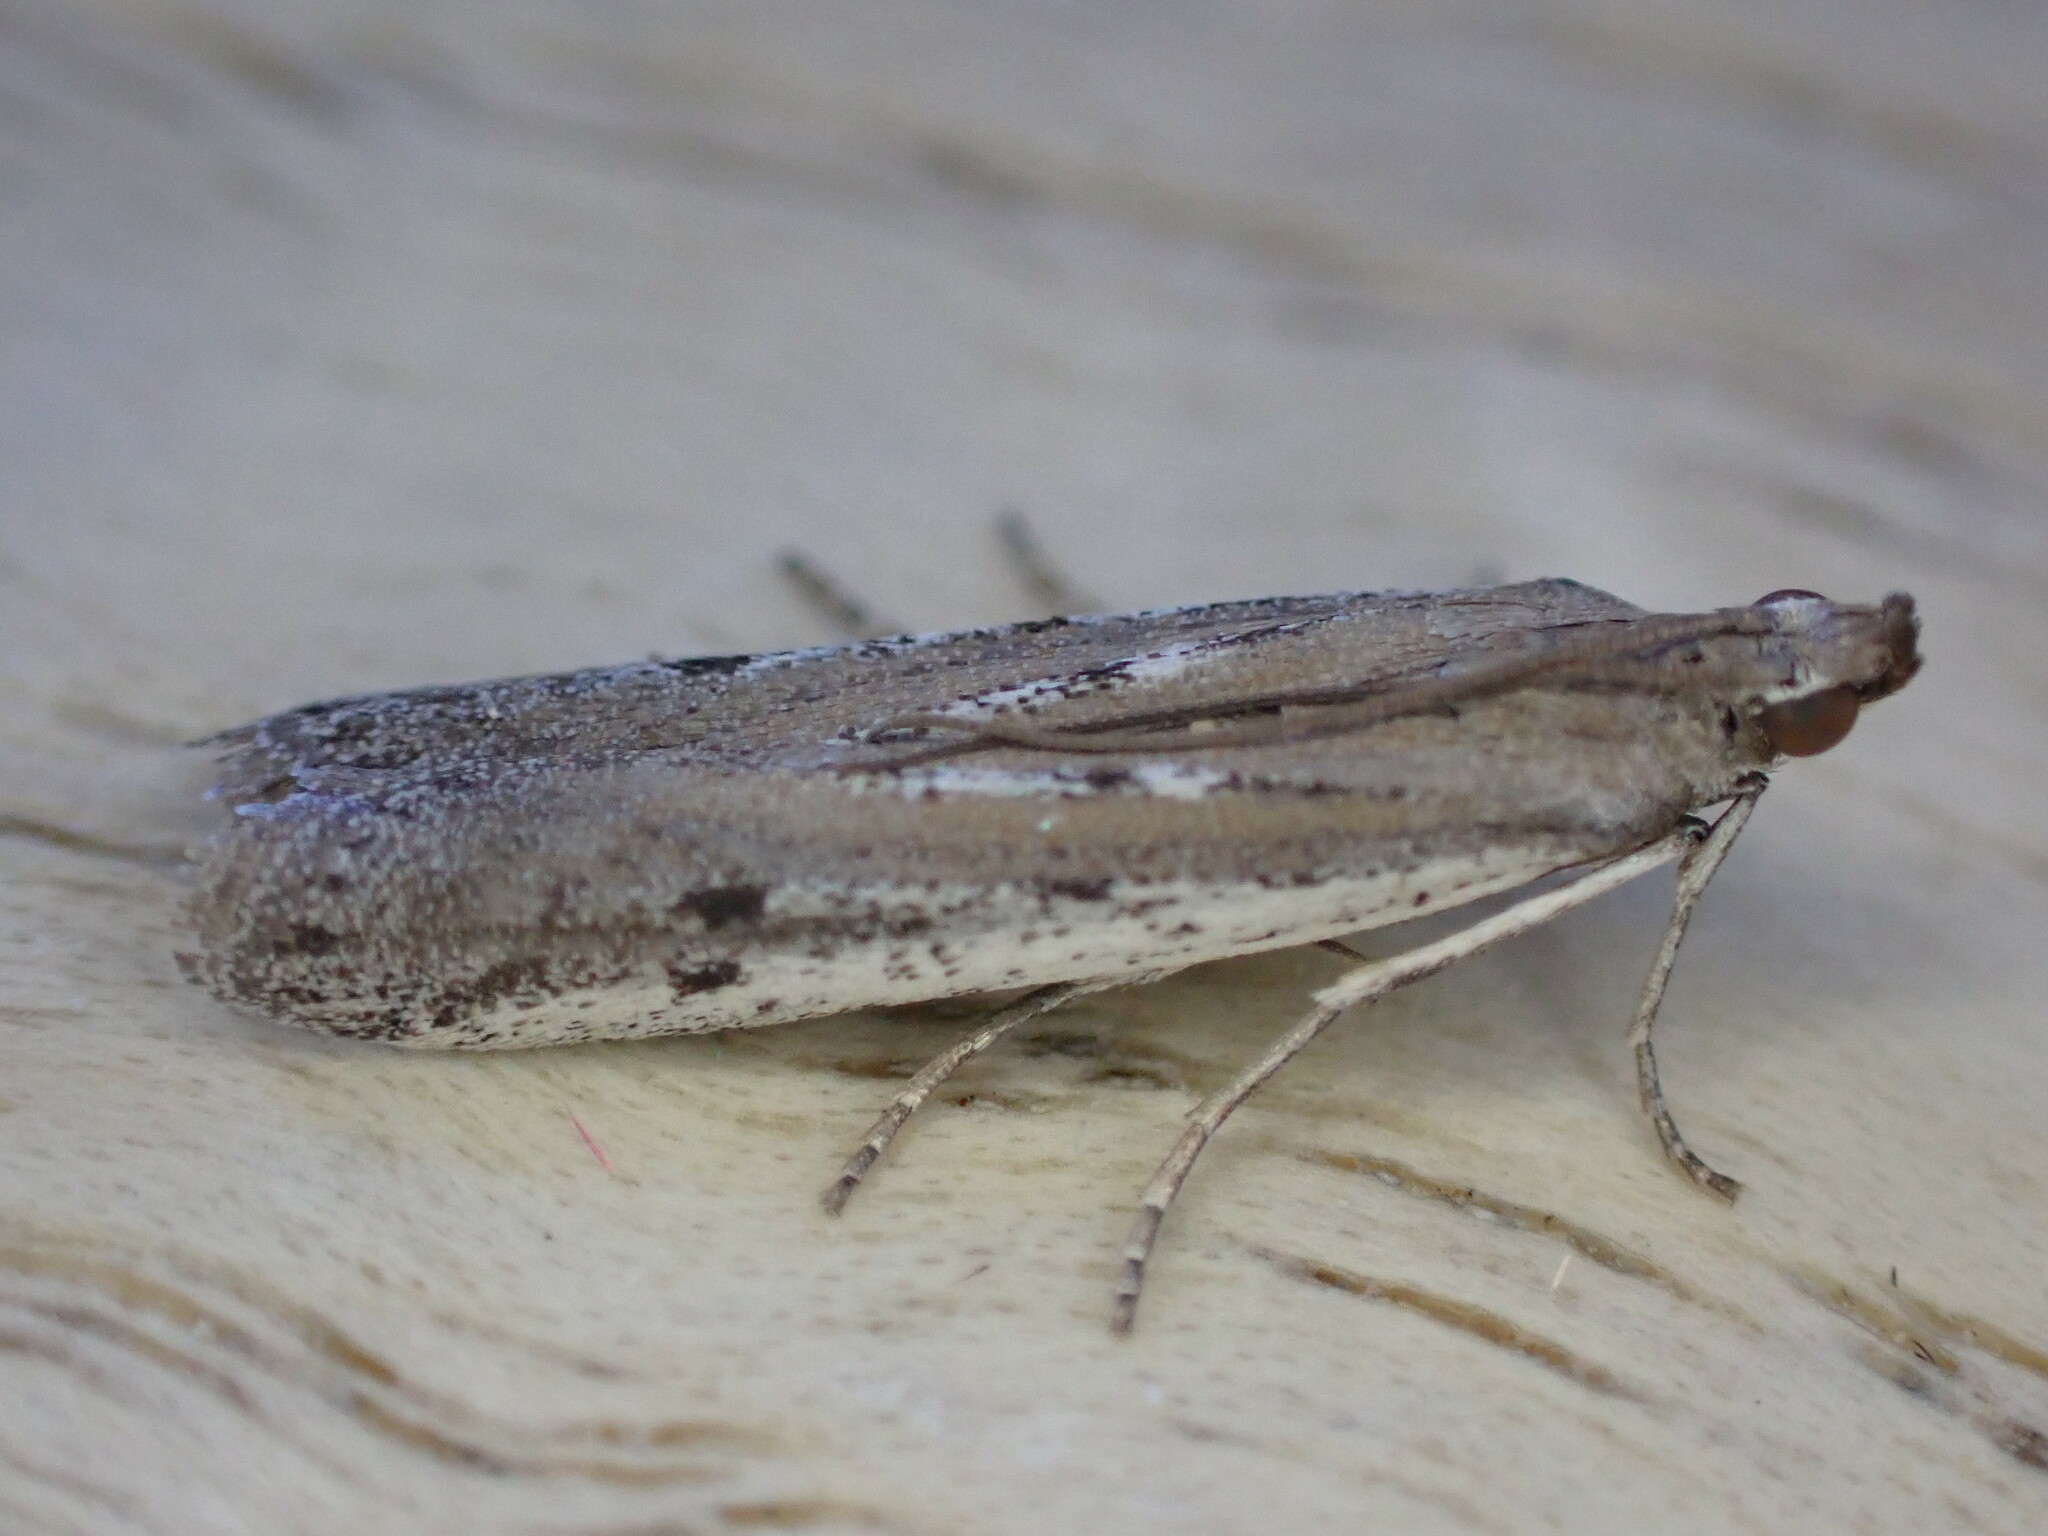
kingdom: Animalia
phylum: Arthropoda
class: Insecta
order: Lepidoptera
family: Pyralidae
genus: Phycitodes
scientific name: Phycitodes binaevella
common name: Ermine knot-horn
